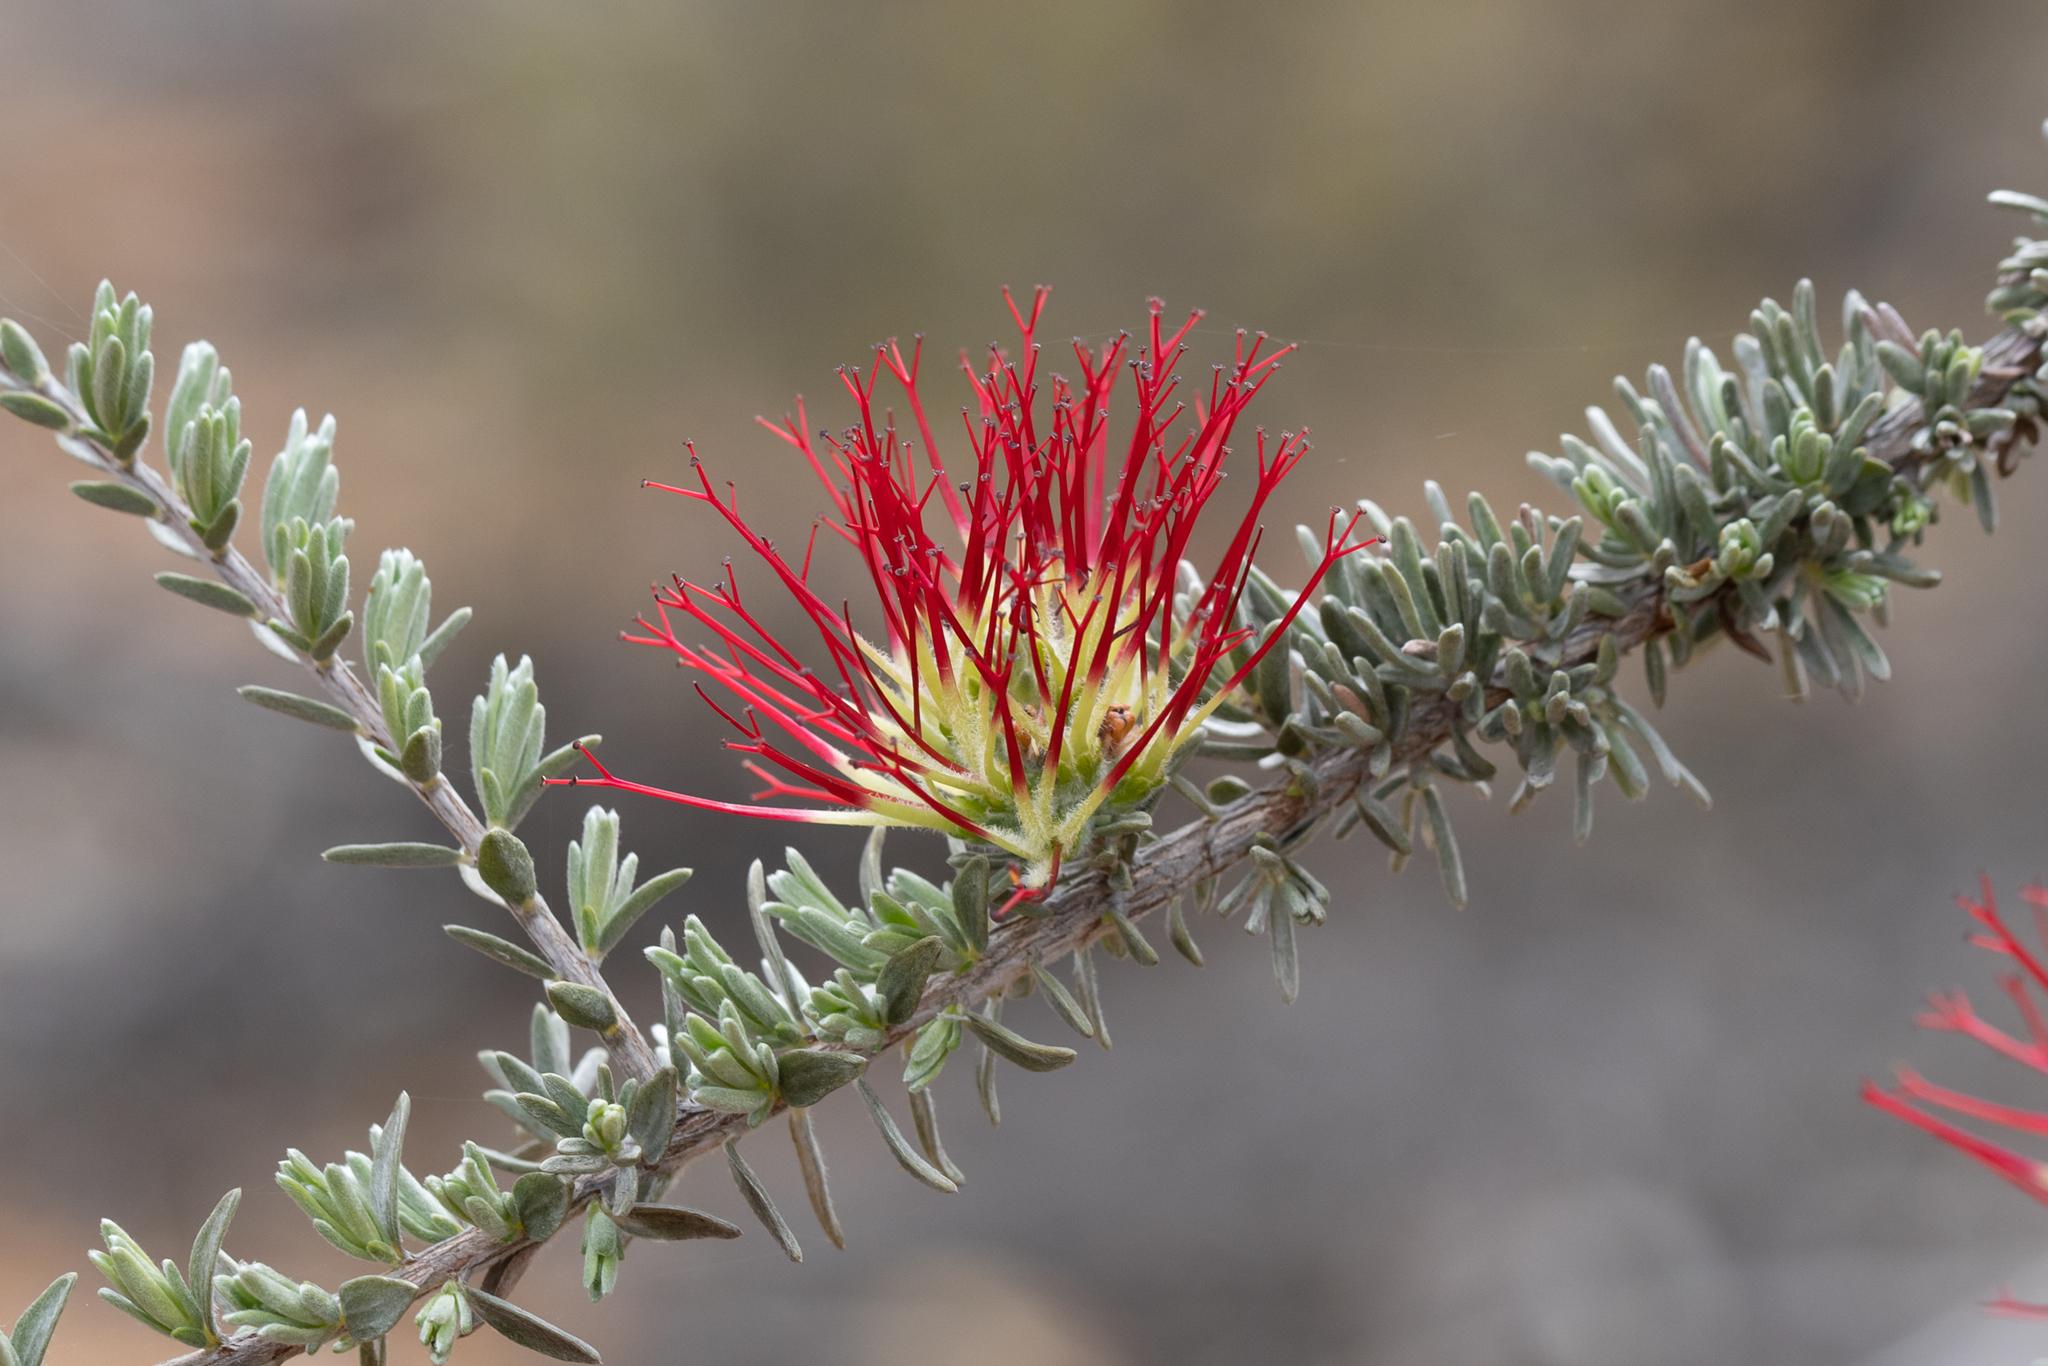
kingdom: Plantae
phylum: Tracheophyta
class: Magnoliopsida
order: Myrtales
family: Myrtaceae
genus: Melaleuca
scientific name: Melaleuca cinerea
